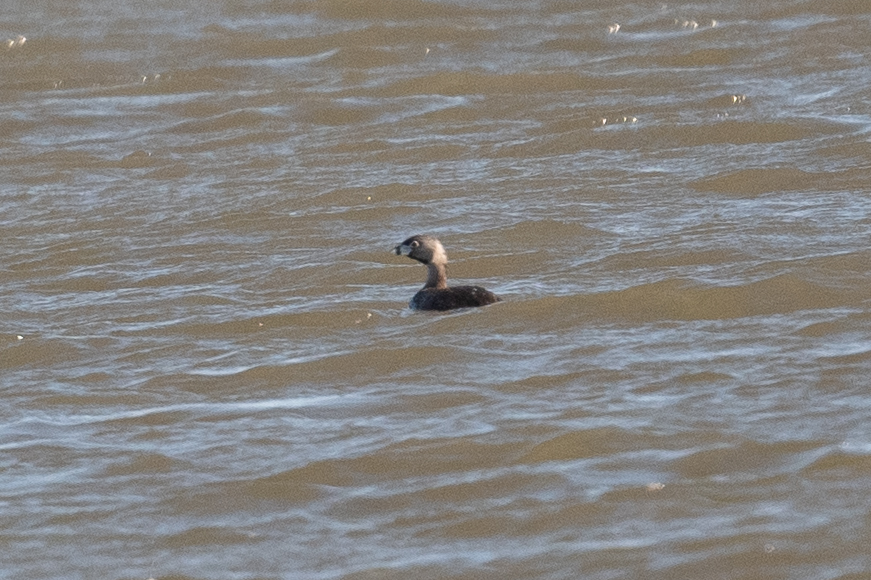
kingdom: Animalia
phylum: Chordata
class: Aves
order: Podicipediformes
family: Podicipedidae
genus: Podilymbus
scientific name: Podilymbus podiceps
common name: Pied-billed grebe
